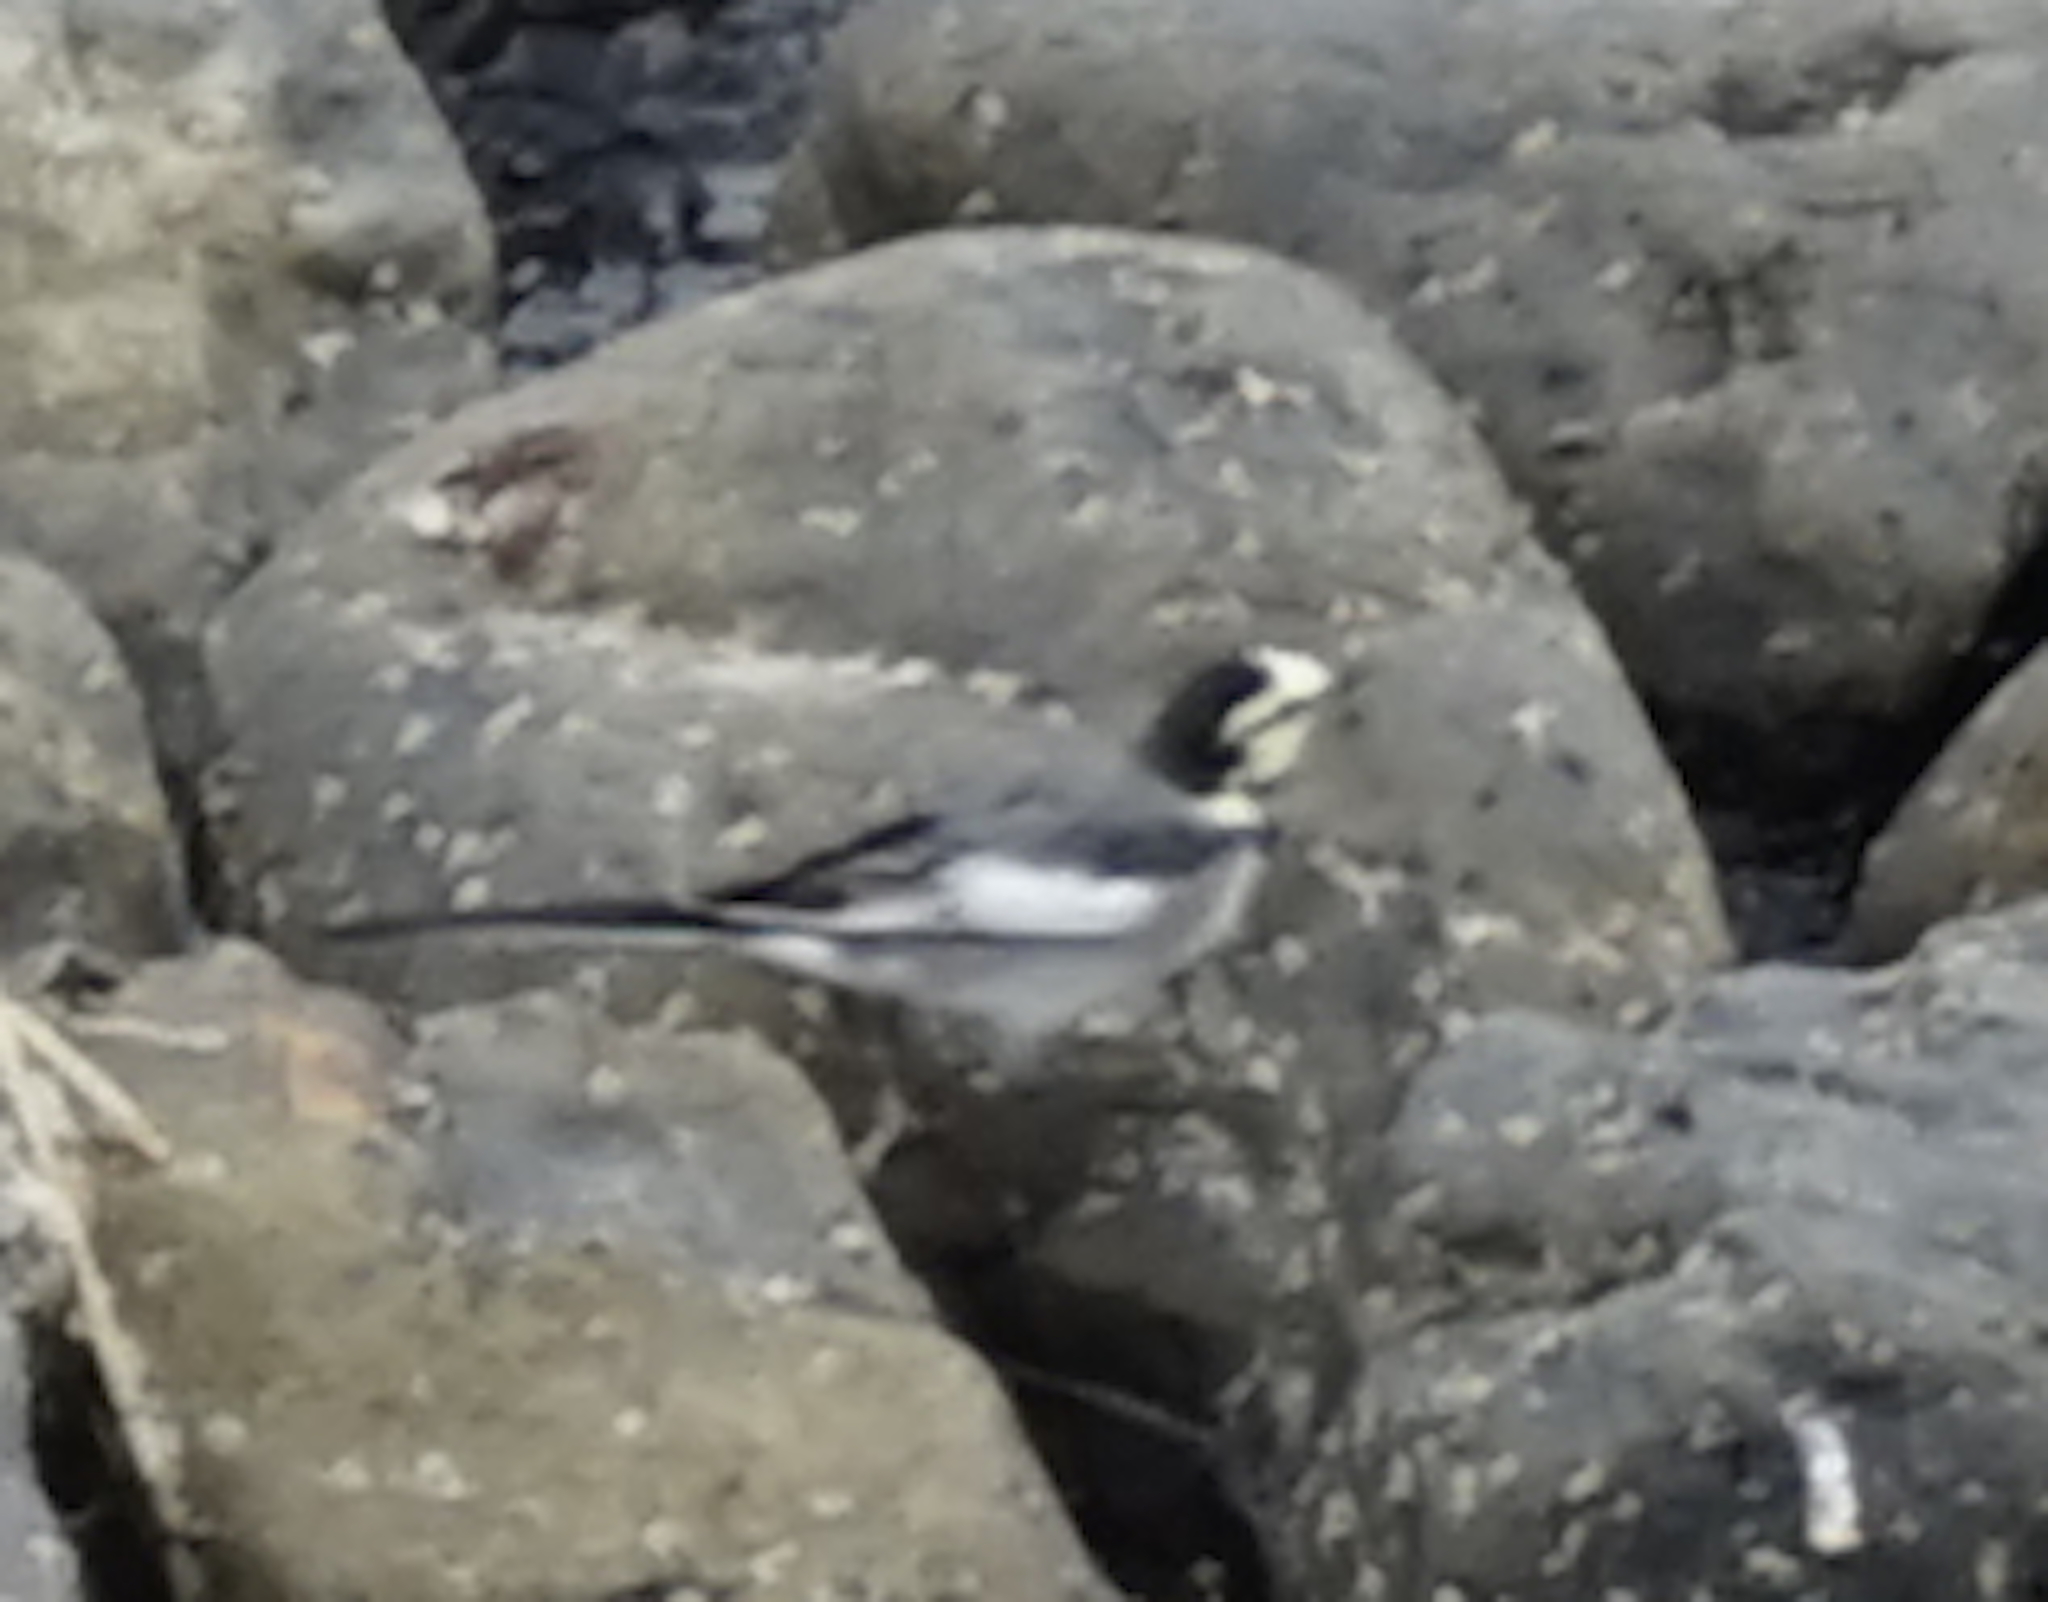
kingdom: Animalia
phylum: Chordata
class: Aves
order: Passeriformes
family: Motacillidae
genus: Motacilla
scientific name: Motacilla alba
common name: White wagtail
